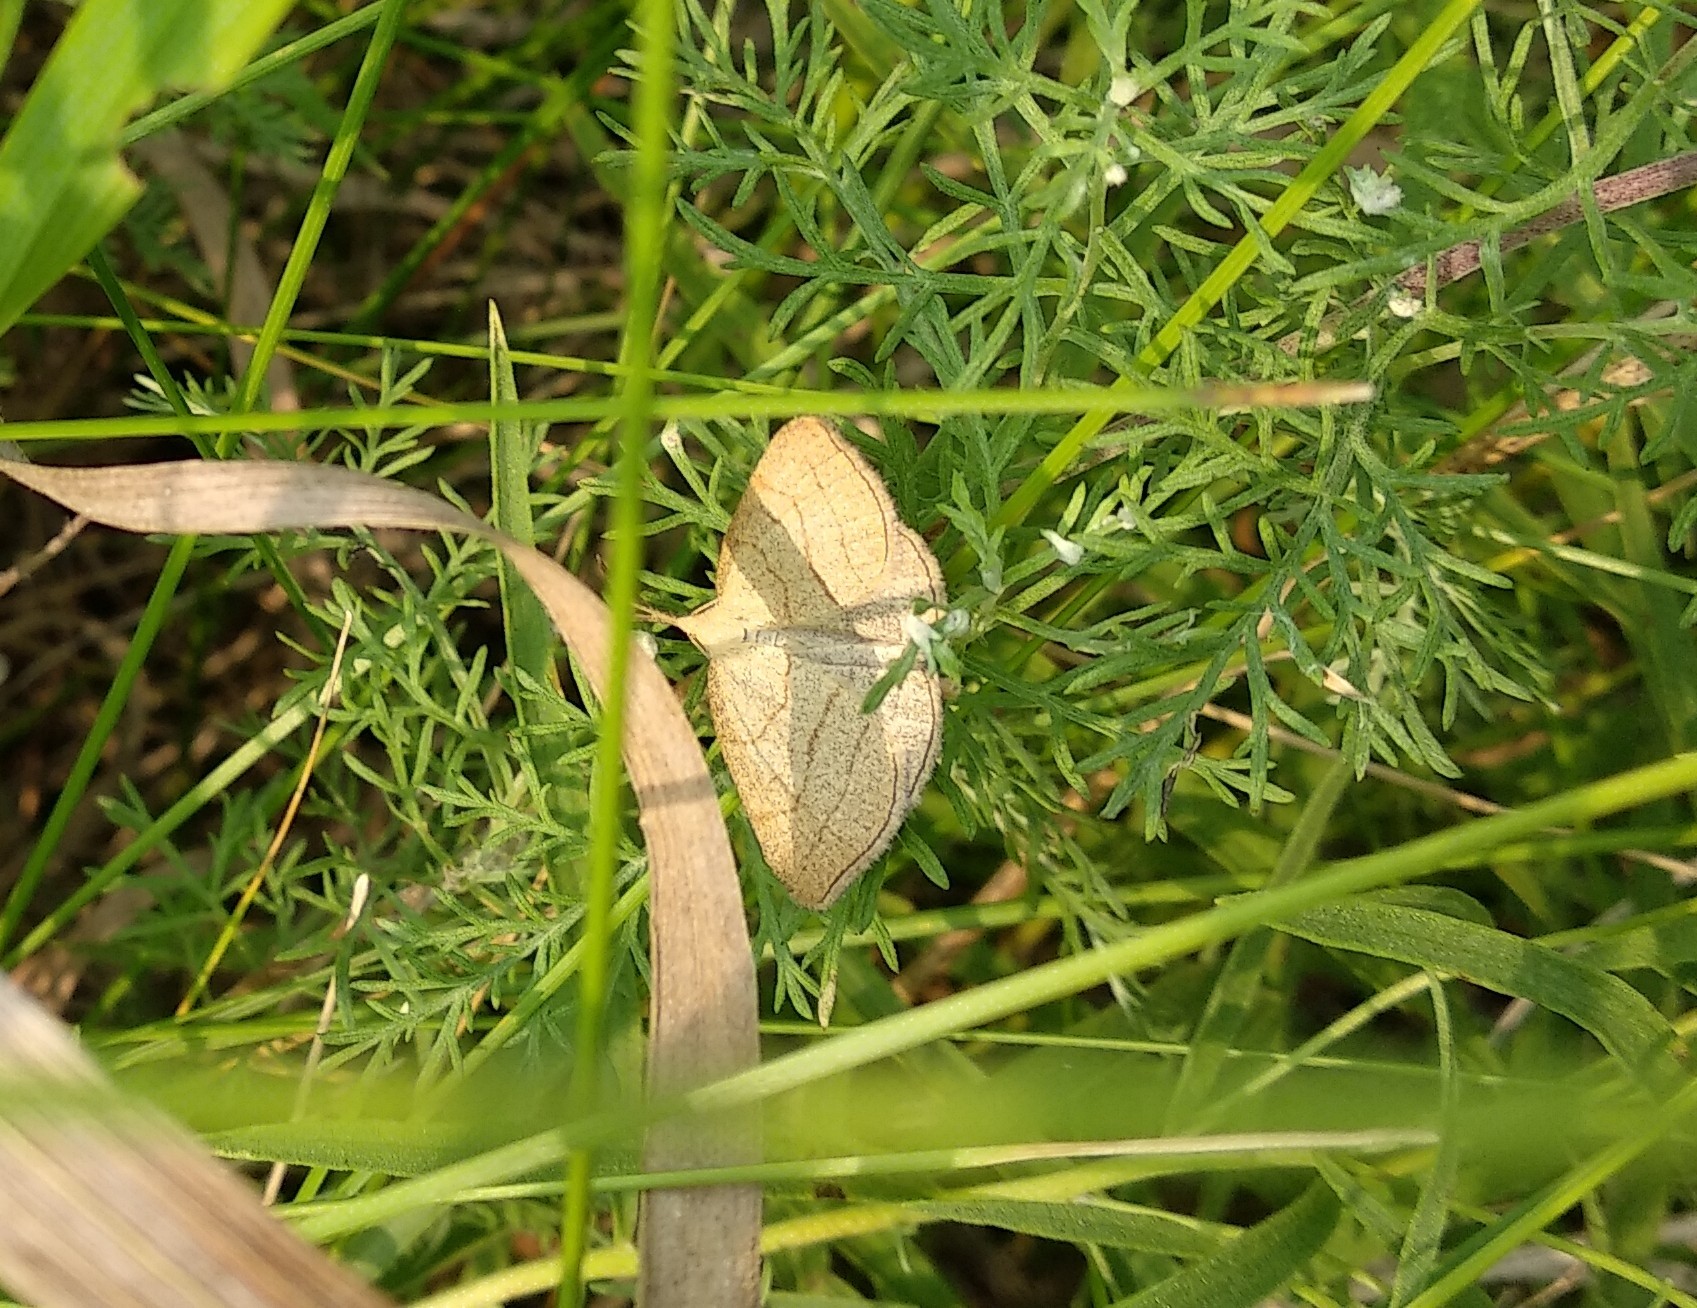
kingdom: Animalia
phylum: Arthropoda
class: Insecta
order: Lepidoptera
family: Erebidae
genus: Polypogon
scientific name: Polypogon tentacularia
